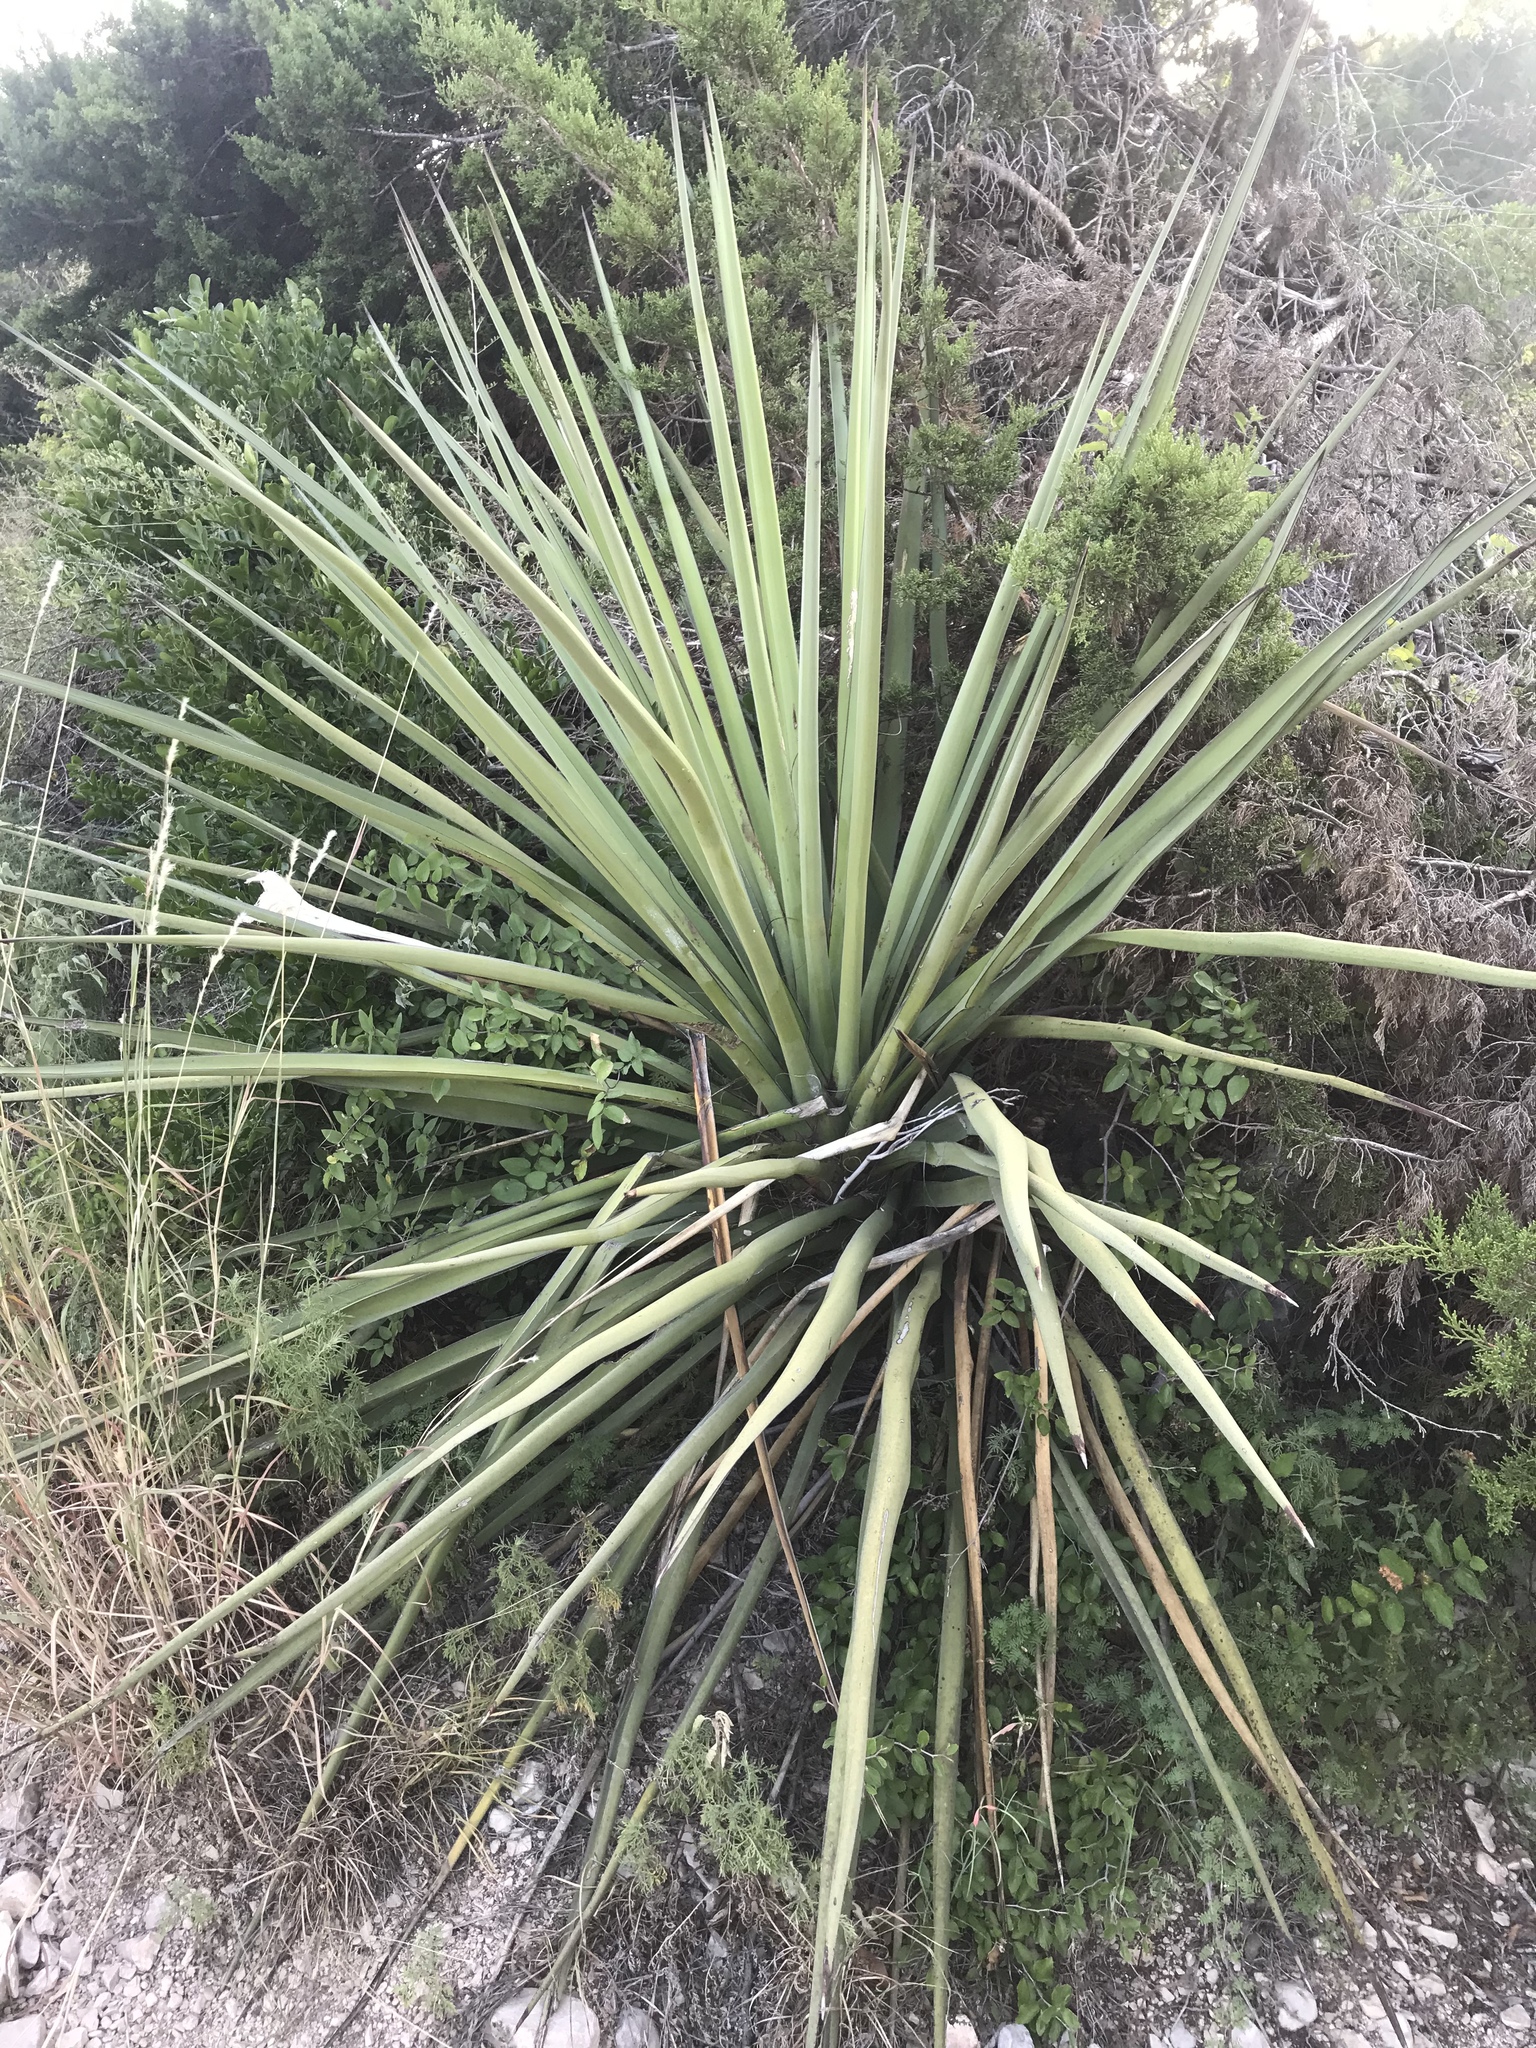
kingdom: Plantae
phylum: Tracheophyta
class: Liliopsida
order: Asparagales
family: Asparagaceae
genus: Yucca
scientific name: Yucca treculiana
